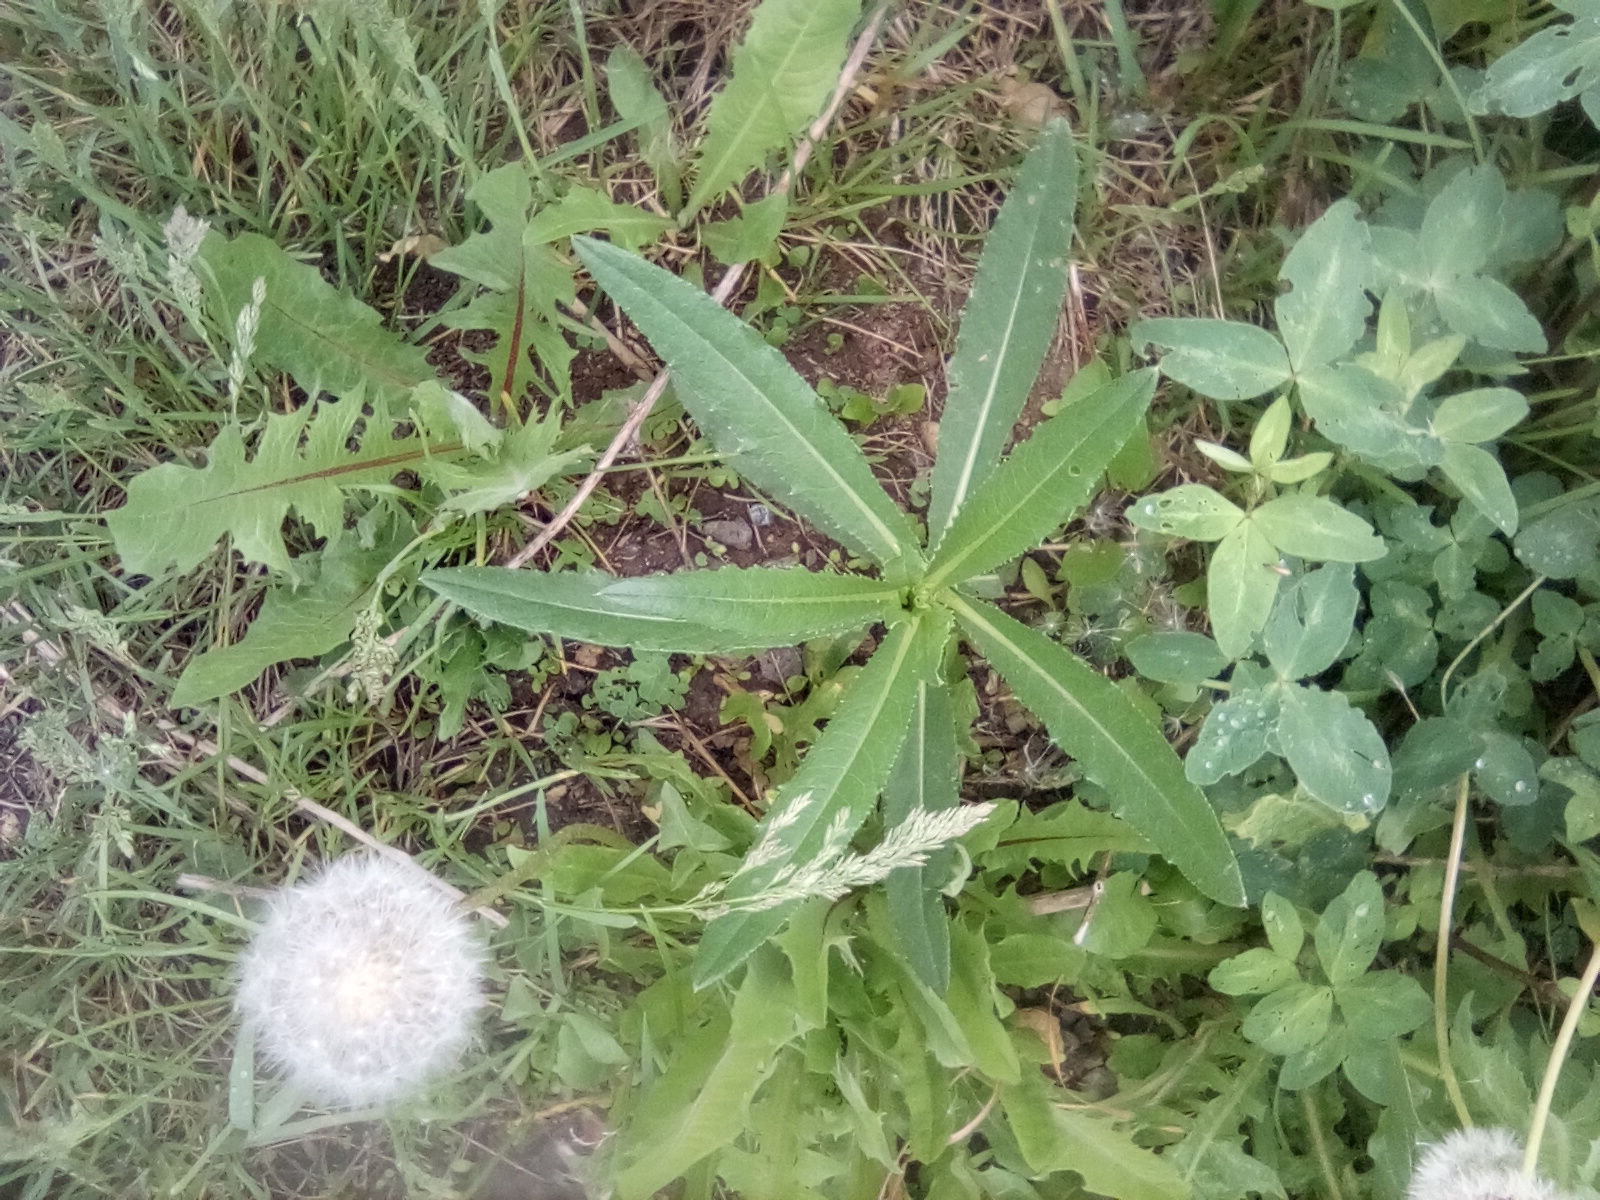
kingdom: Plantae
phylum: Tracheophyta
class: Magnoliopsida
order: Asterales
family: Asteraceae
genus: Cirsium
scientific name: Cirsium arvense
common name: Creeping thistle
